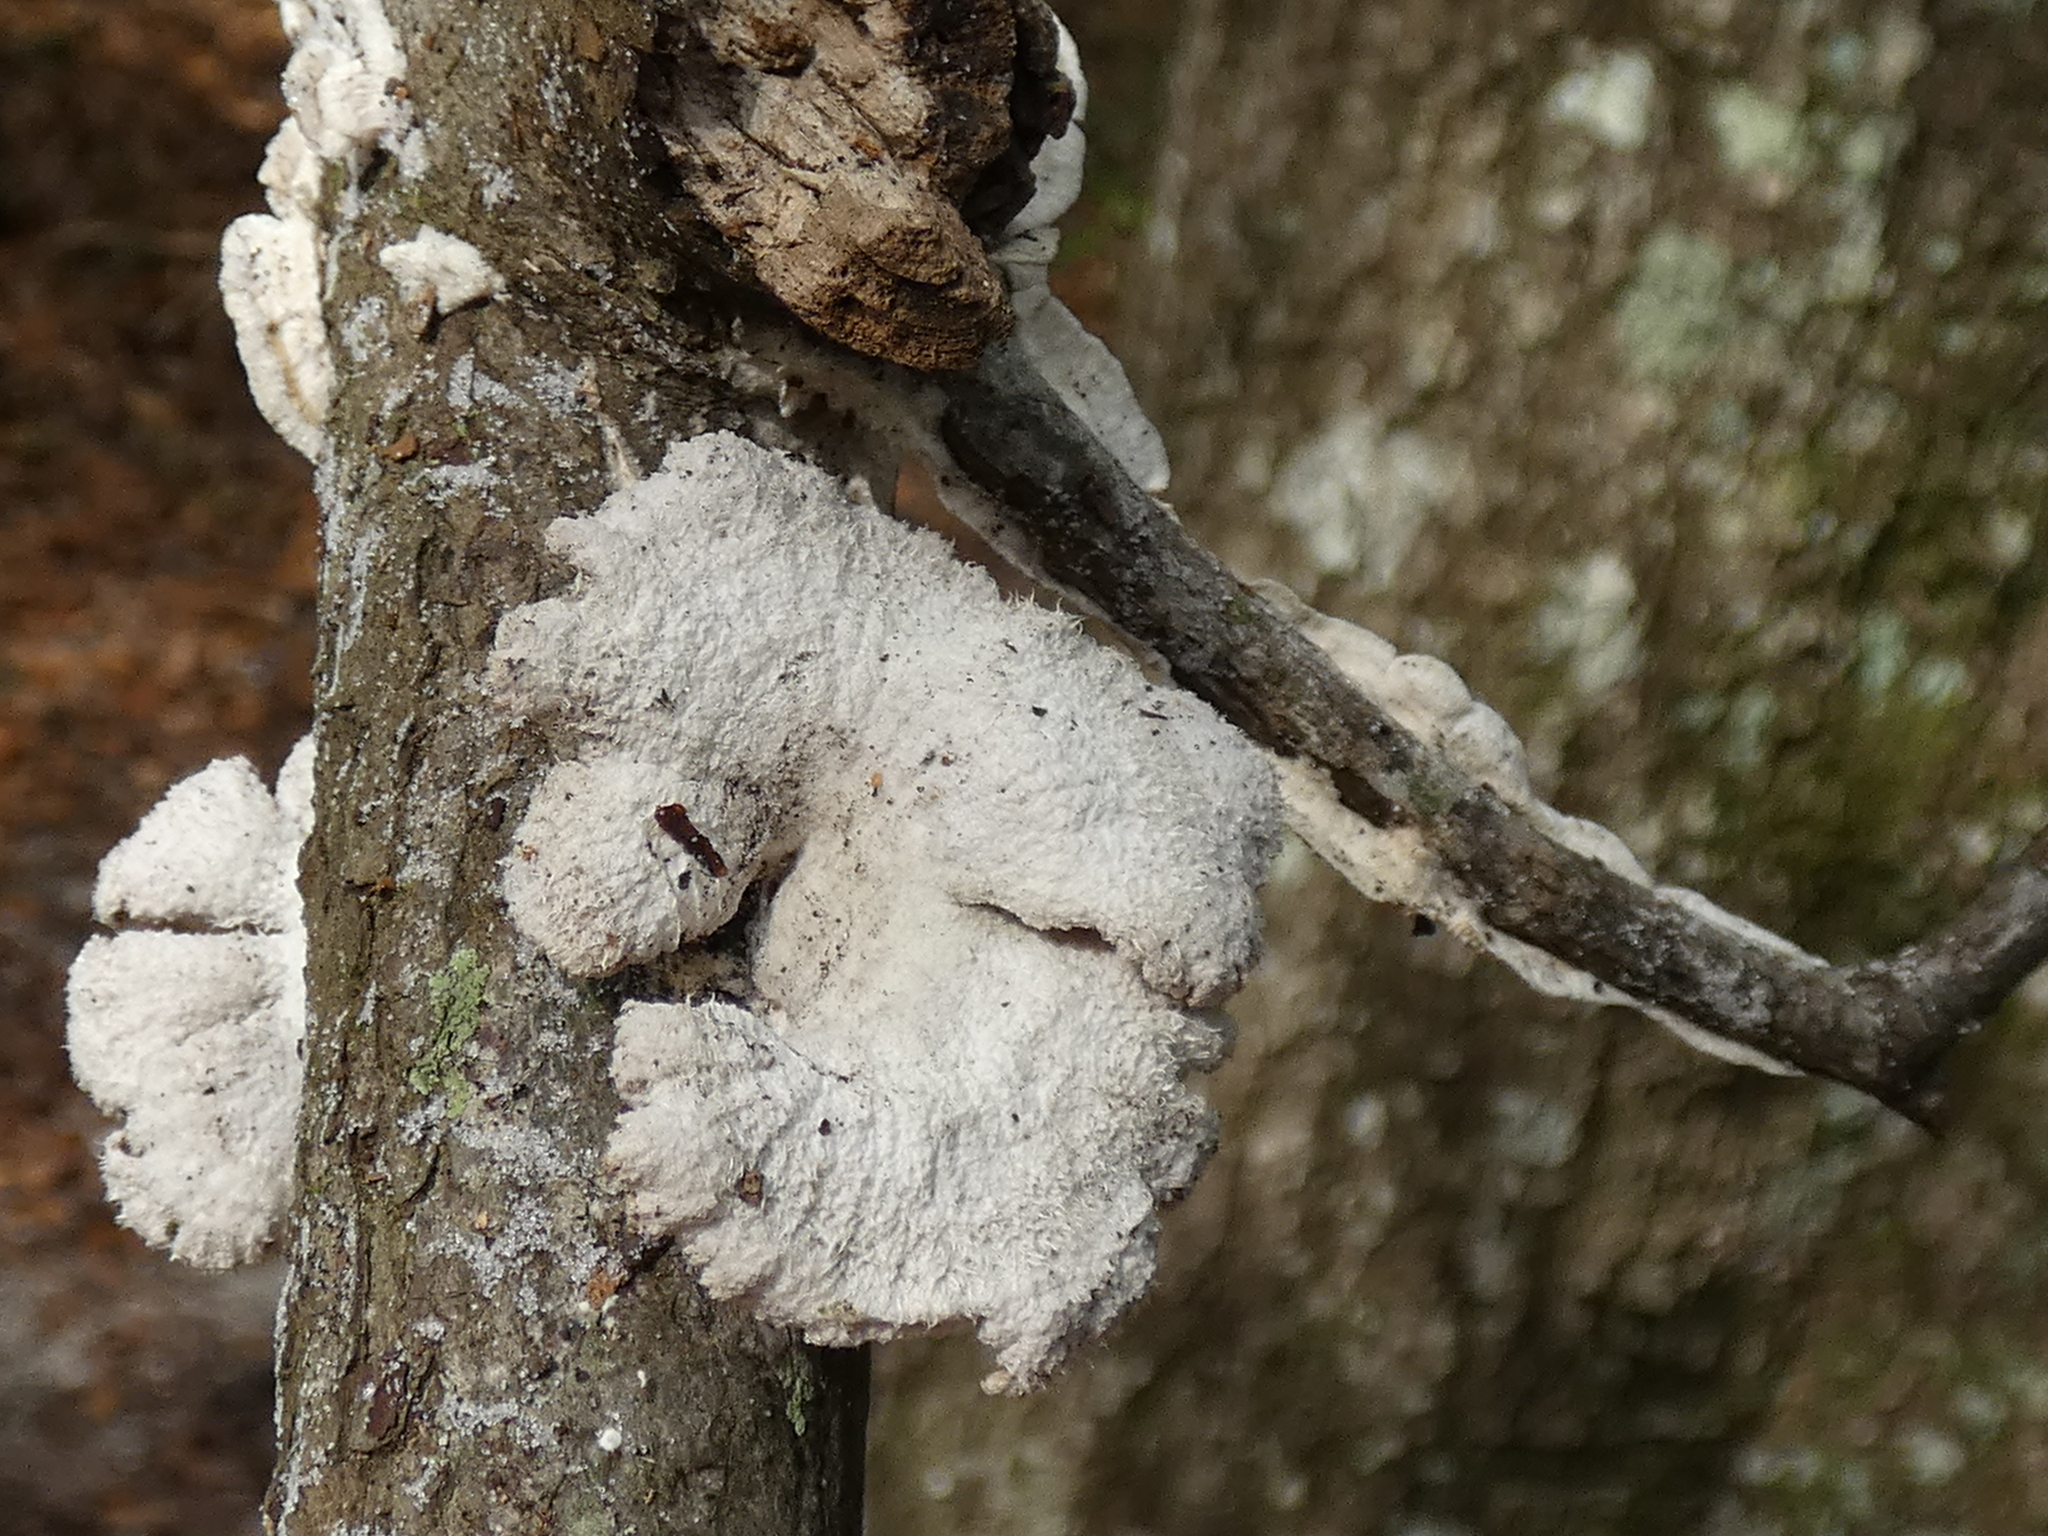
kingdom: Fungi
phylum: Basidiomycota
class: Agaricomycetes
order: Agaricales
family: Schizophyllaceae
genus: Schizophyllum
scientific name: Schizophyllum commune
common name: Common porecrust
